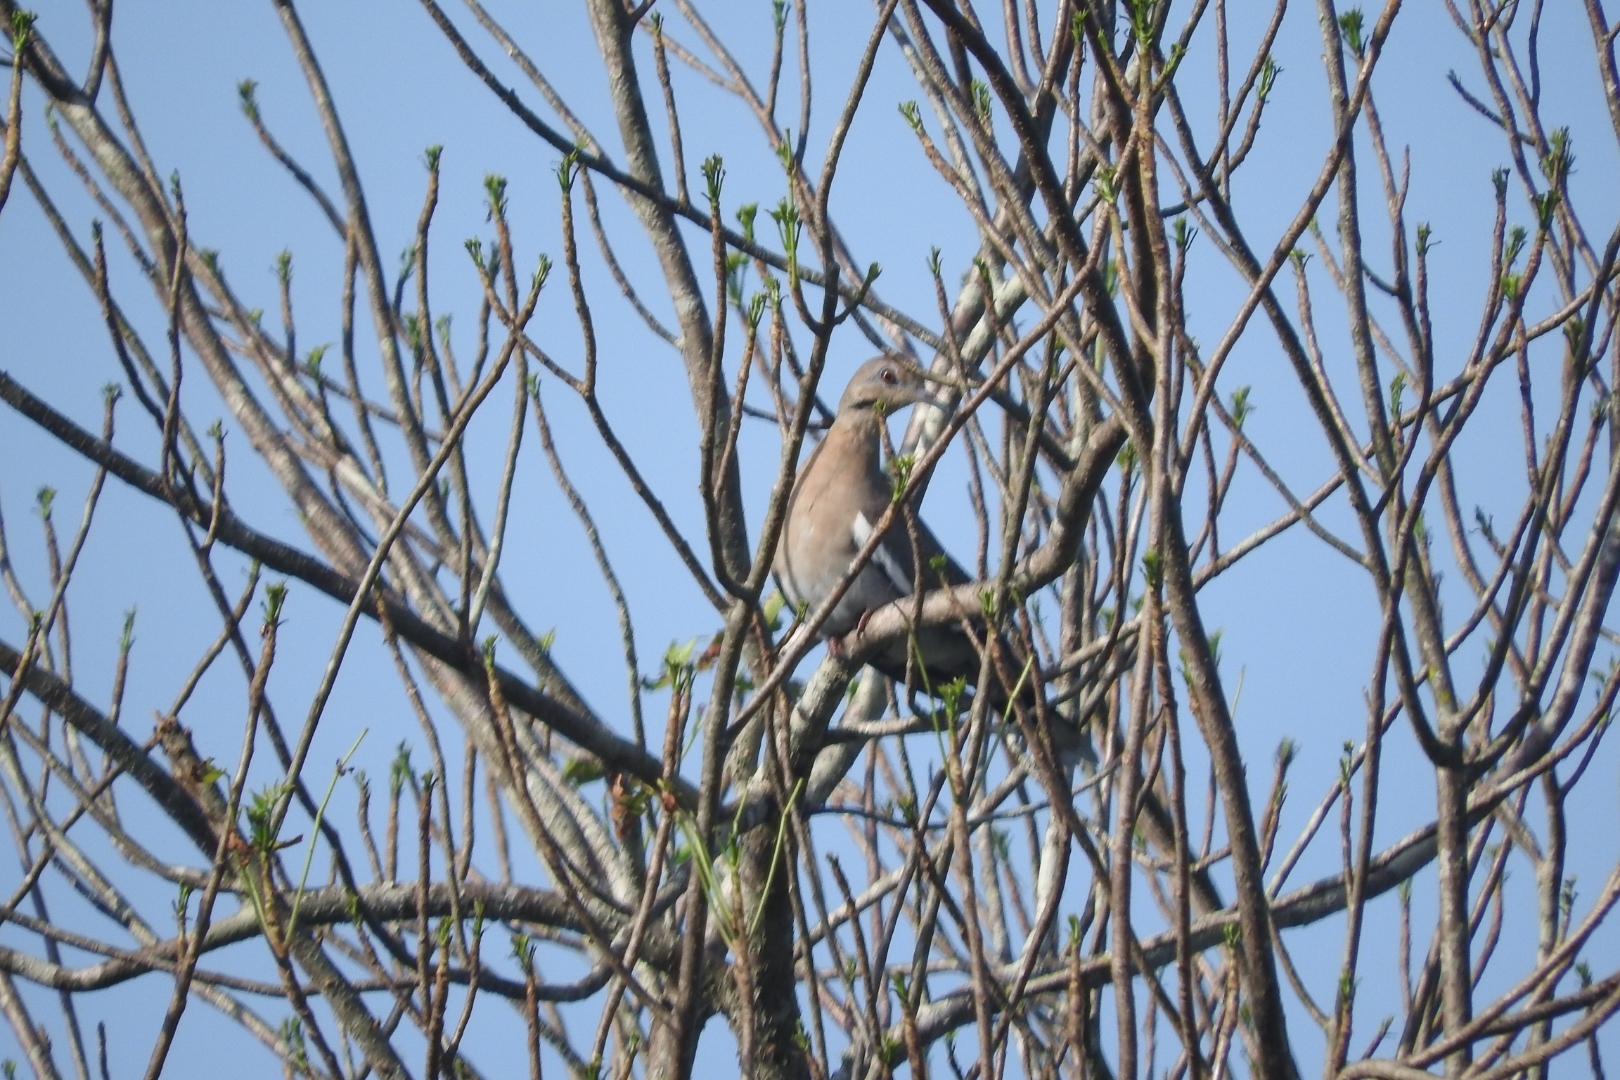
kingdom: Animalia
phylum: Chordata
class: Aves
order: Columbiformes
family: Columbidae
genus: Zenaida
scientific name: Zenaida asiatica
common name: White-winged dove
